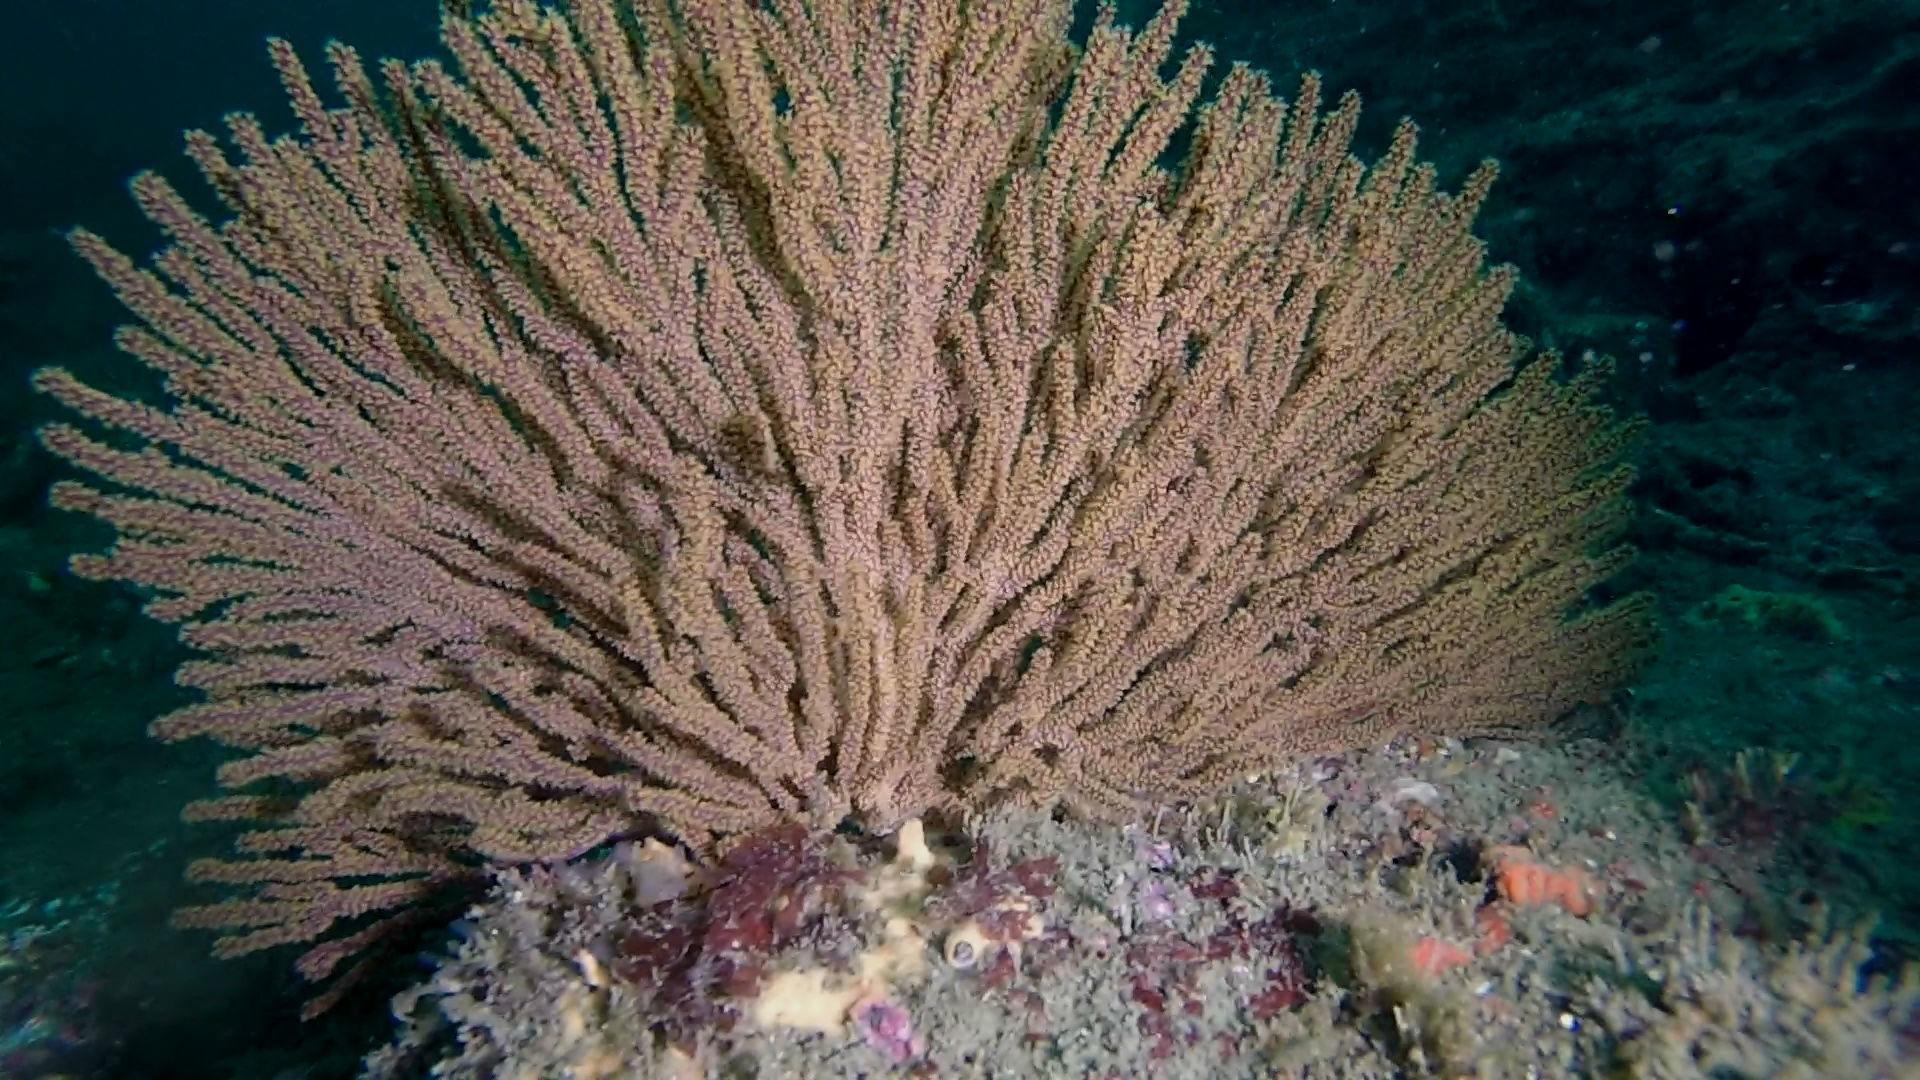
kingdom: Animalia
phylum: Cnidaria
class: Anthozoa
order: Malacalcyonacea
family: Plexauridae
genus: Muricea
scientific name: Muricea californica
